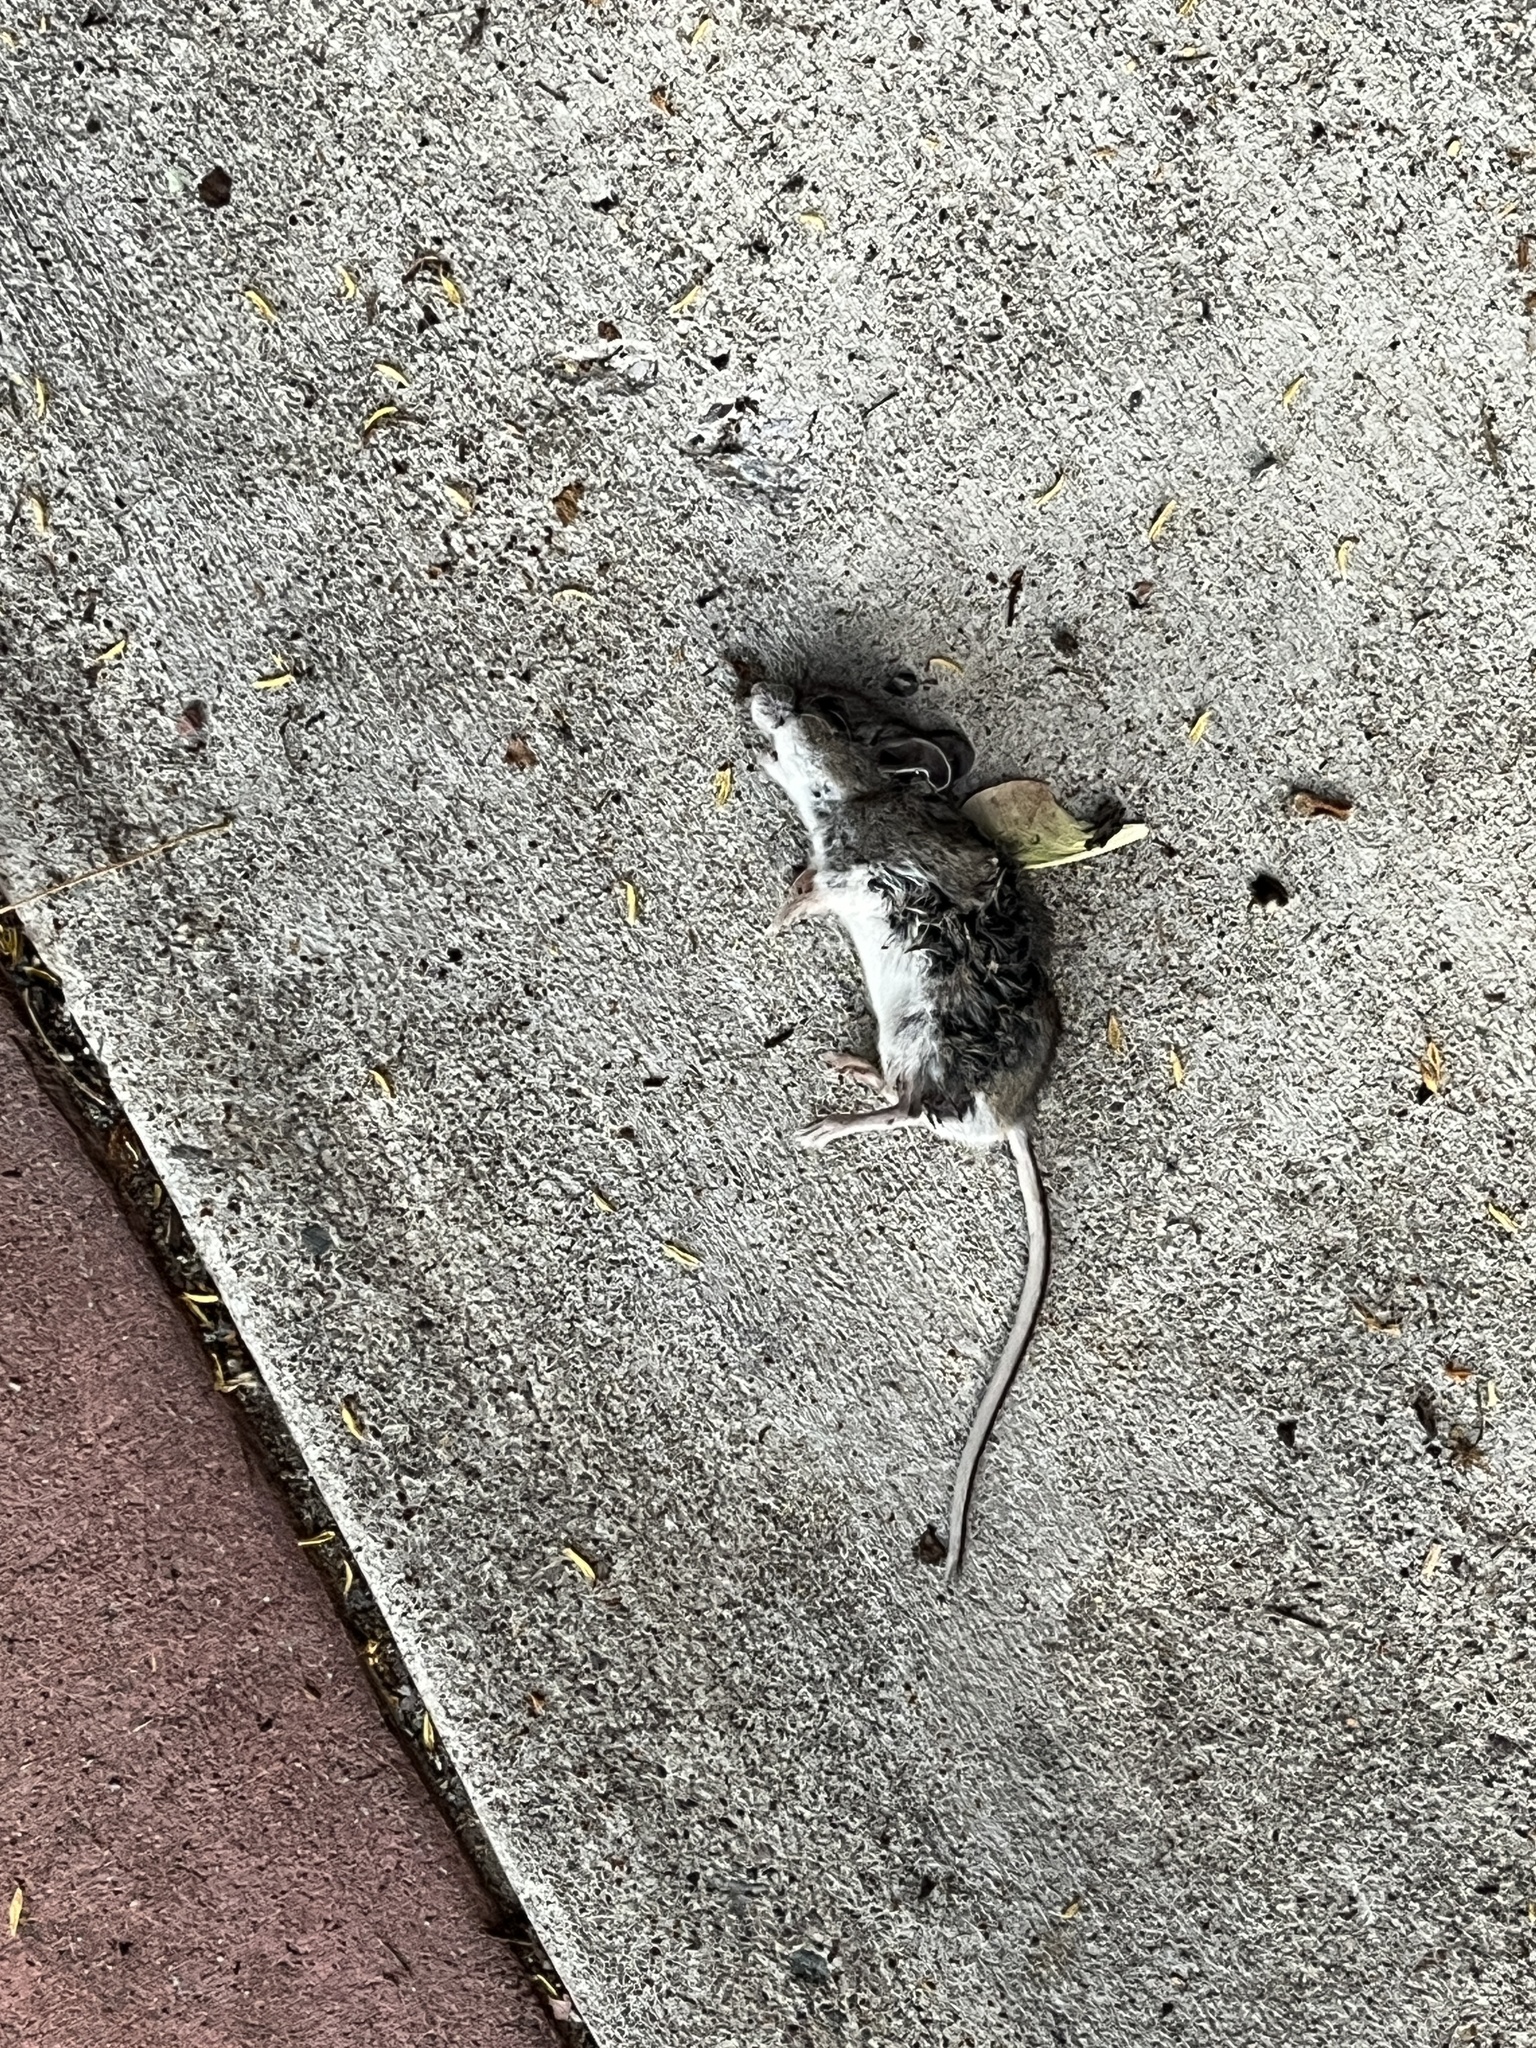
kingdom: Animalia
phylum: Chordata
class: Mammalia
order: Rodentia
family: Cricetidae
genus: Peromyscus
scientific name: Peromyscus maniculatus
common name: Deer mouse
